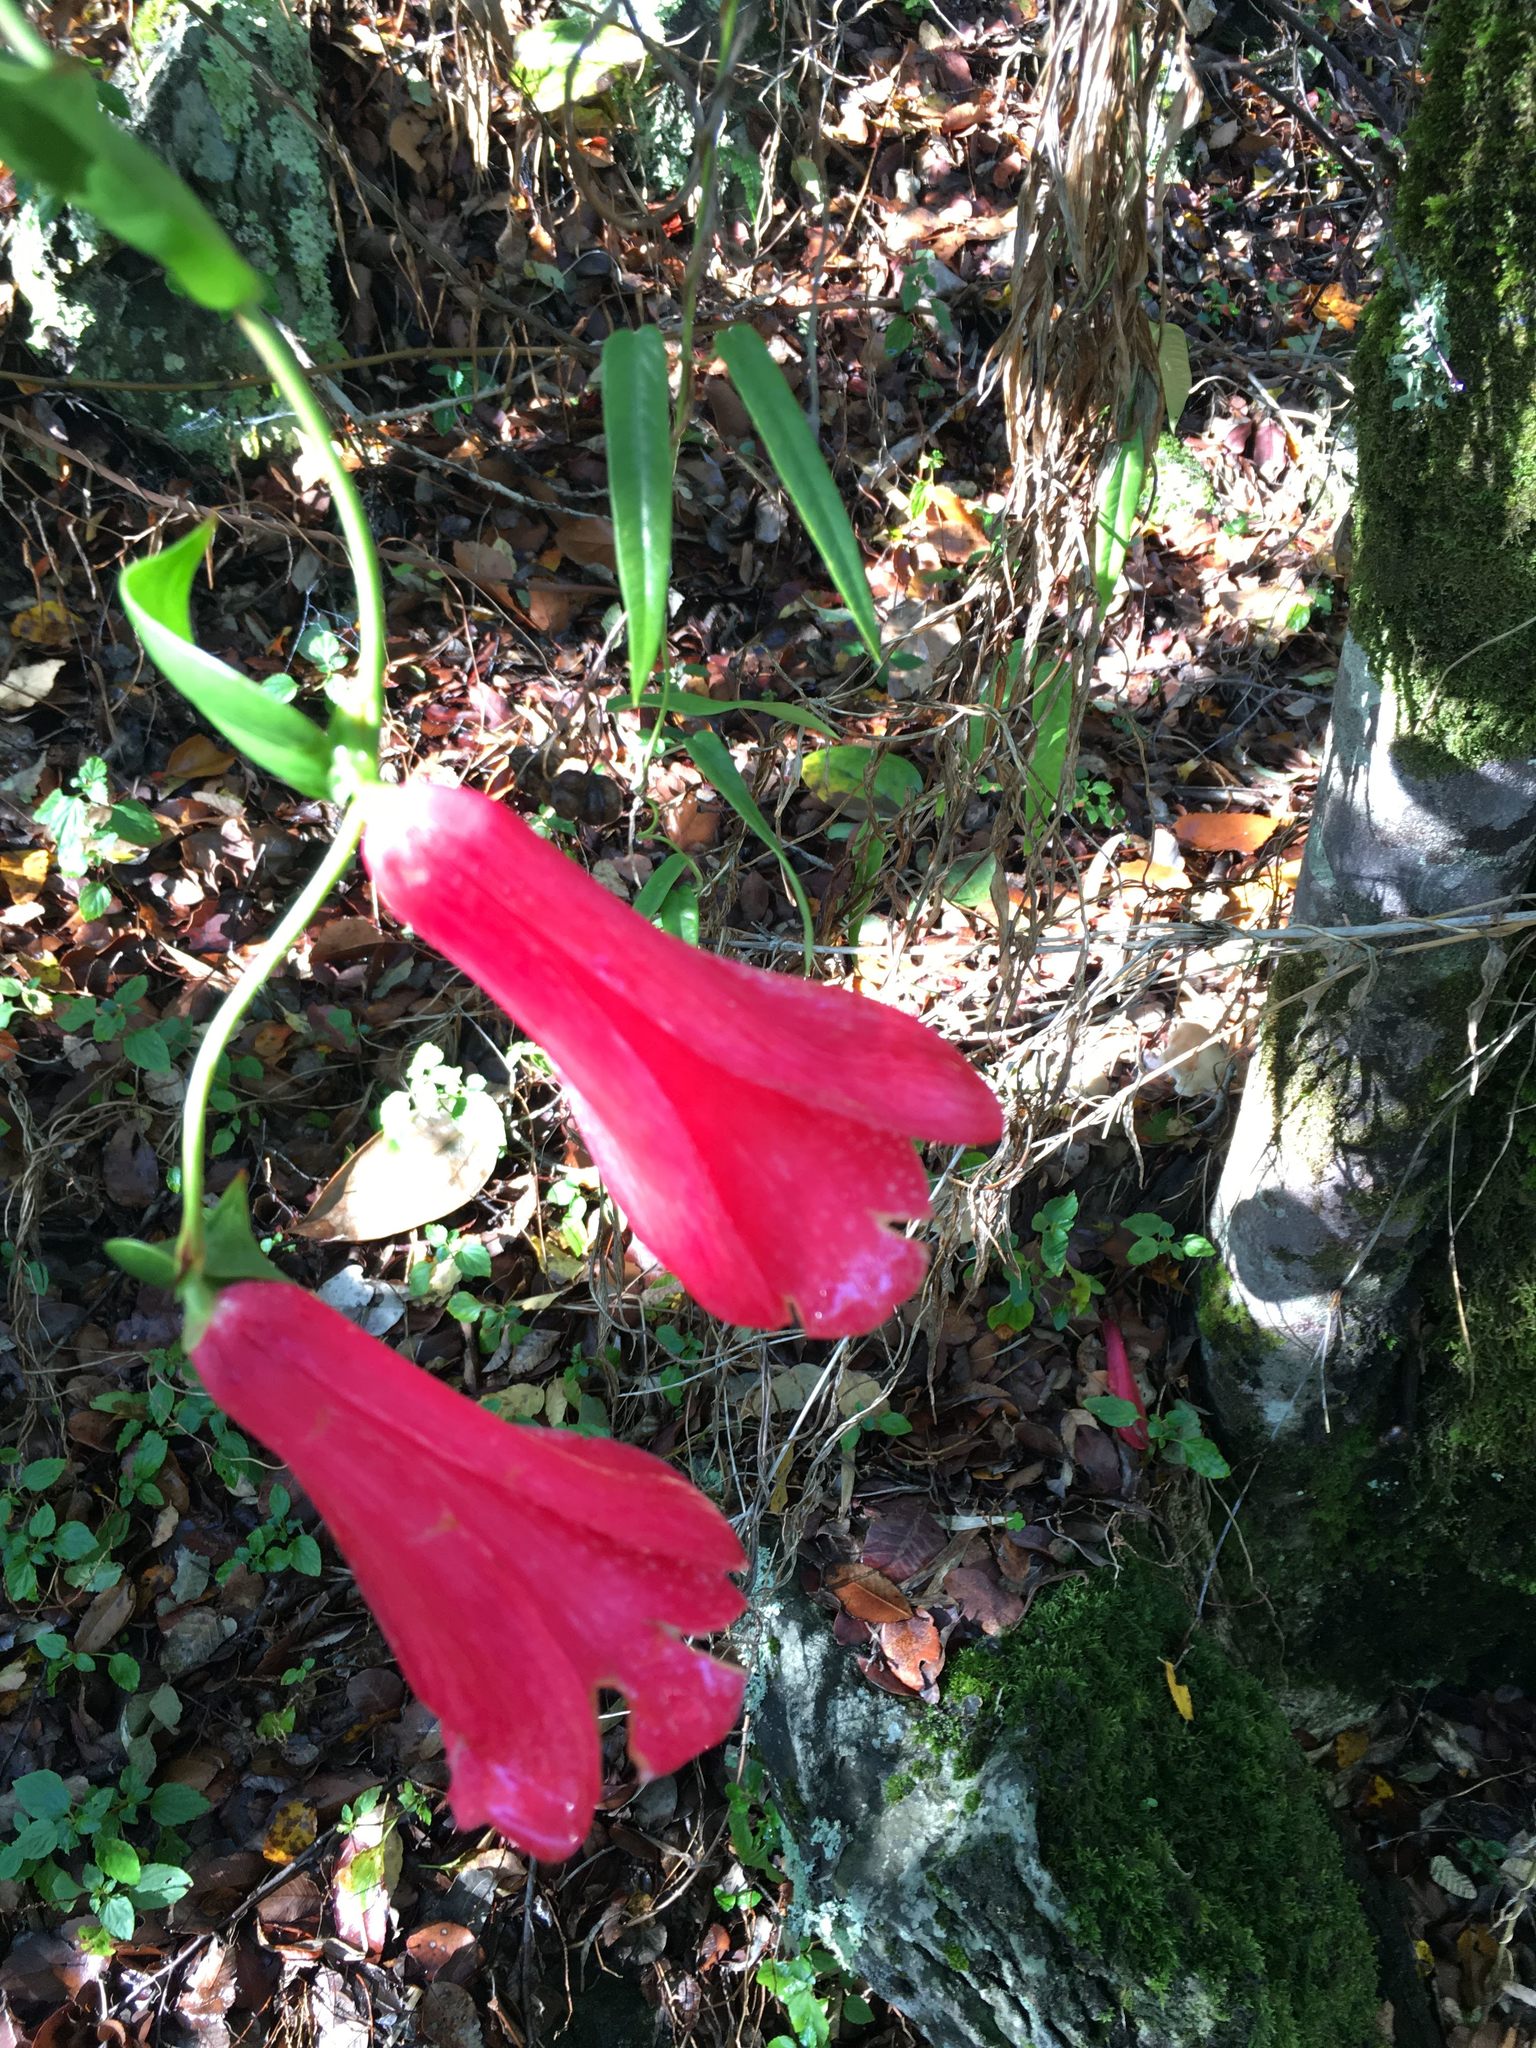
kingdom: Plantae
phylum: Tracheophyta
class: Liliopsida
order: Liliales
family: Philesiaceae
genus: Lapageria
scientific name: Lapageria rosea
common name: Chilean-bellflower
